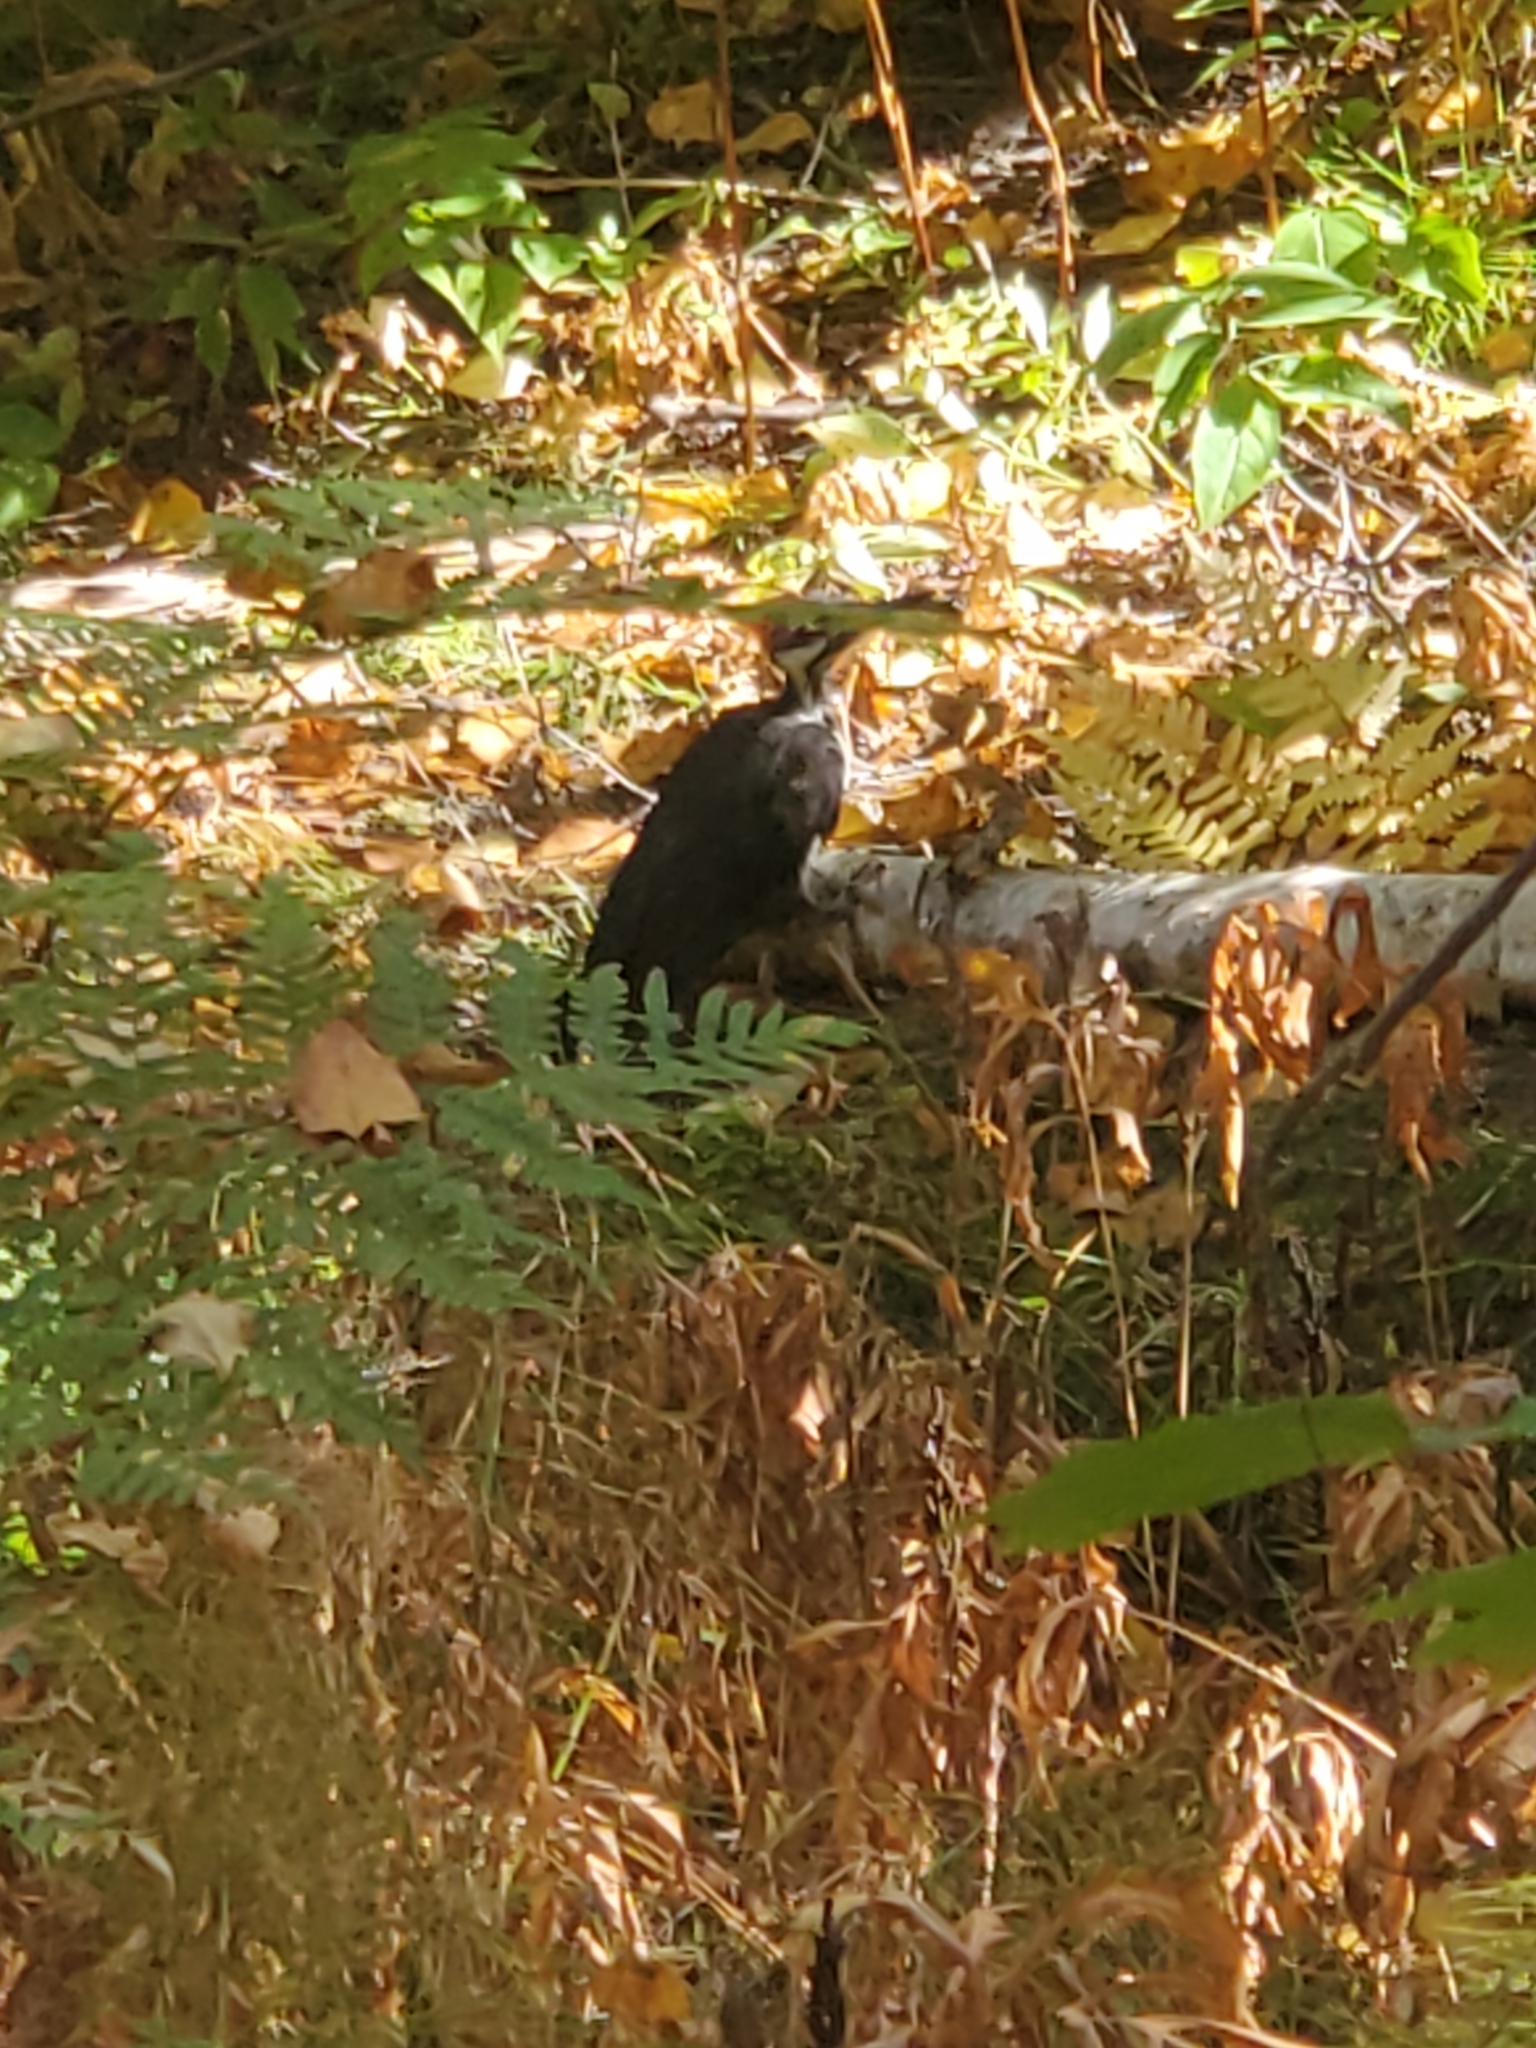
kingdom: Animalia
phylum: Chordata
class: Aves
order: Piciformes
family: Picidae
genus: Dryocopus
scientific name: Dryocopus pileatus
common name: Pileated woodpecker
